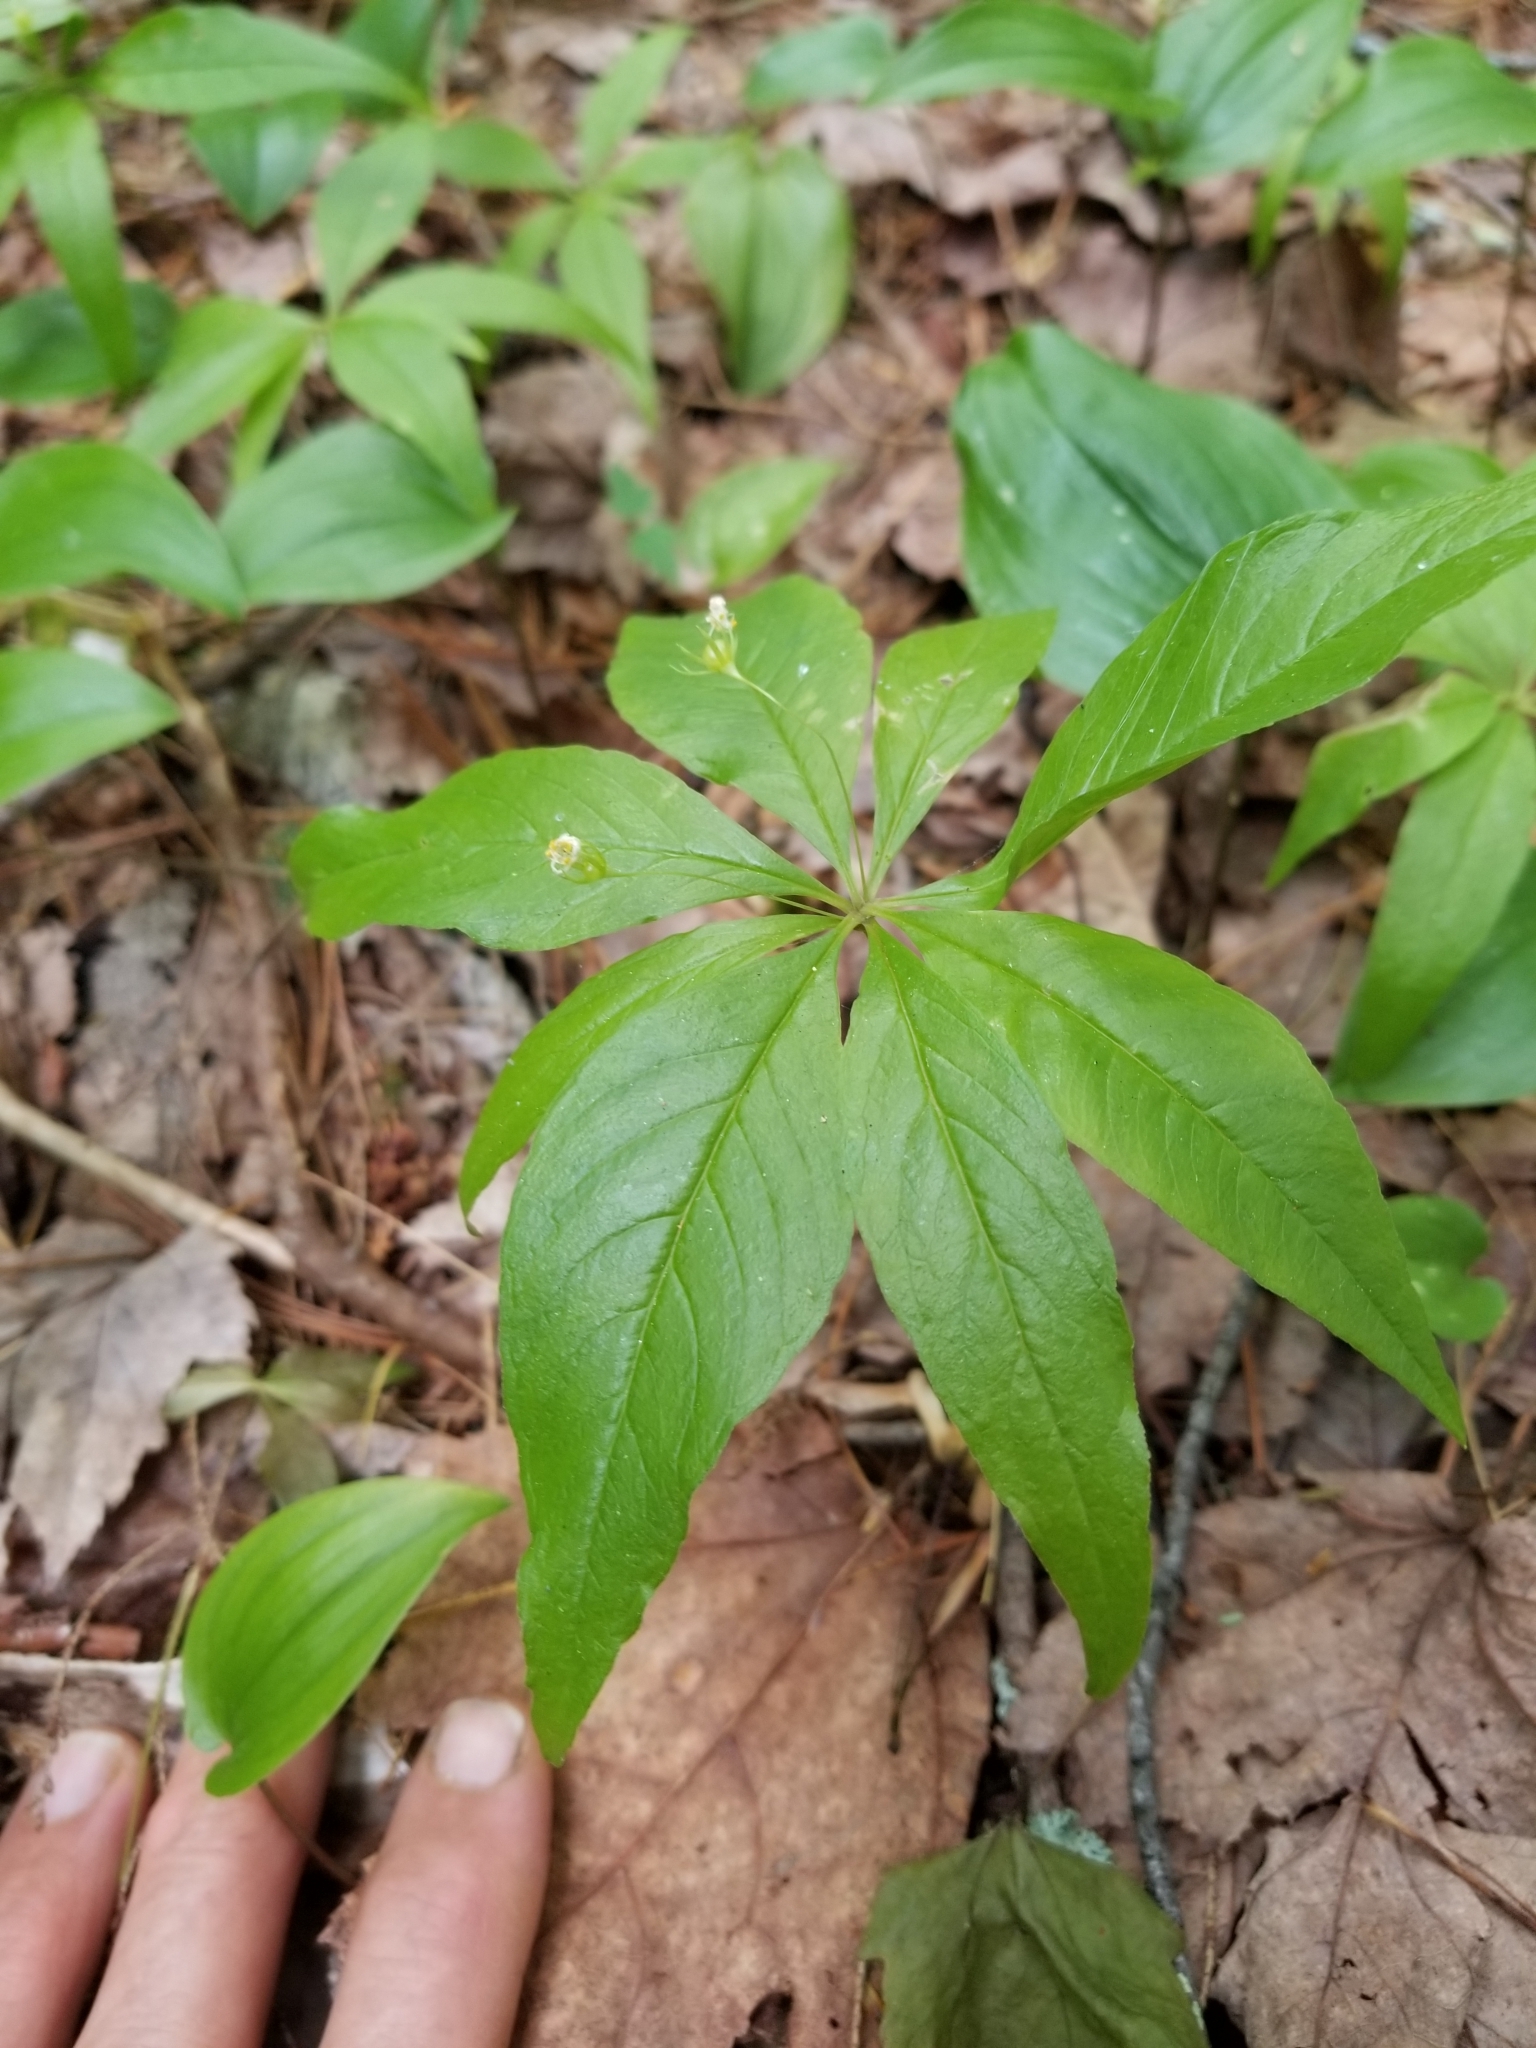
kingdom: Plantae
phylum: Tracheophyta
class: Magnoliopsida
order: Ericales
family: Primulaceae
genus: Lysimachia
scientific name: Lysimachia borealis
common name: American starflower
